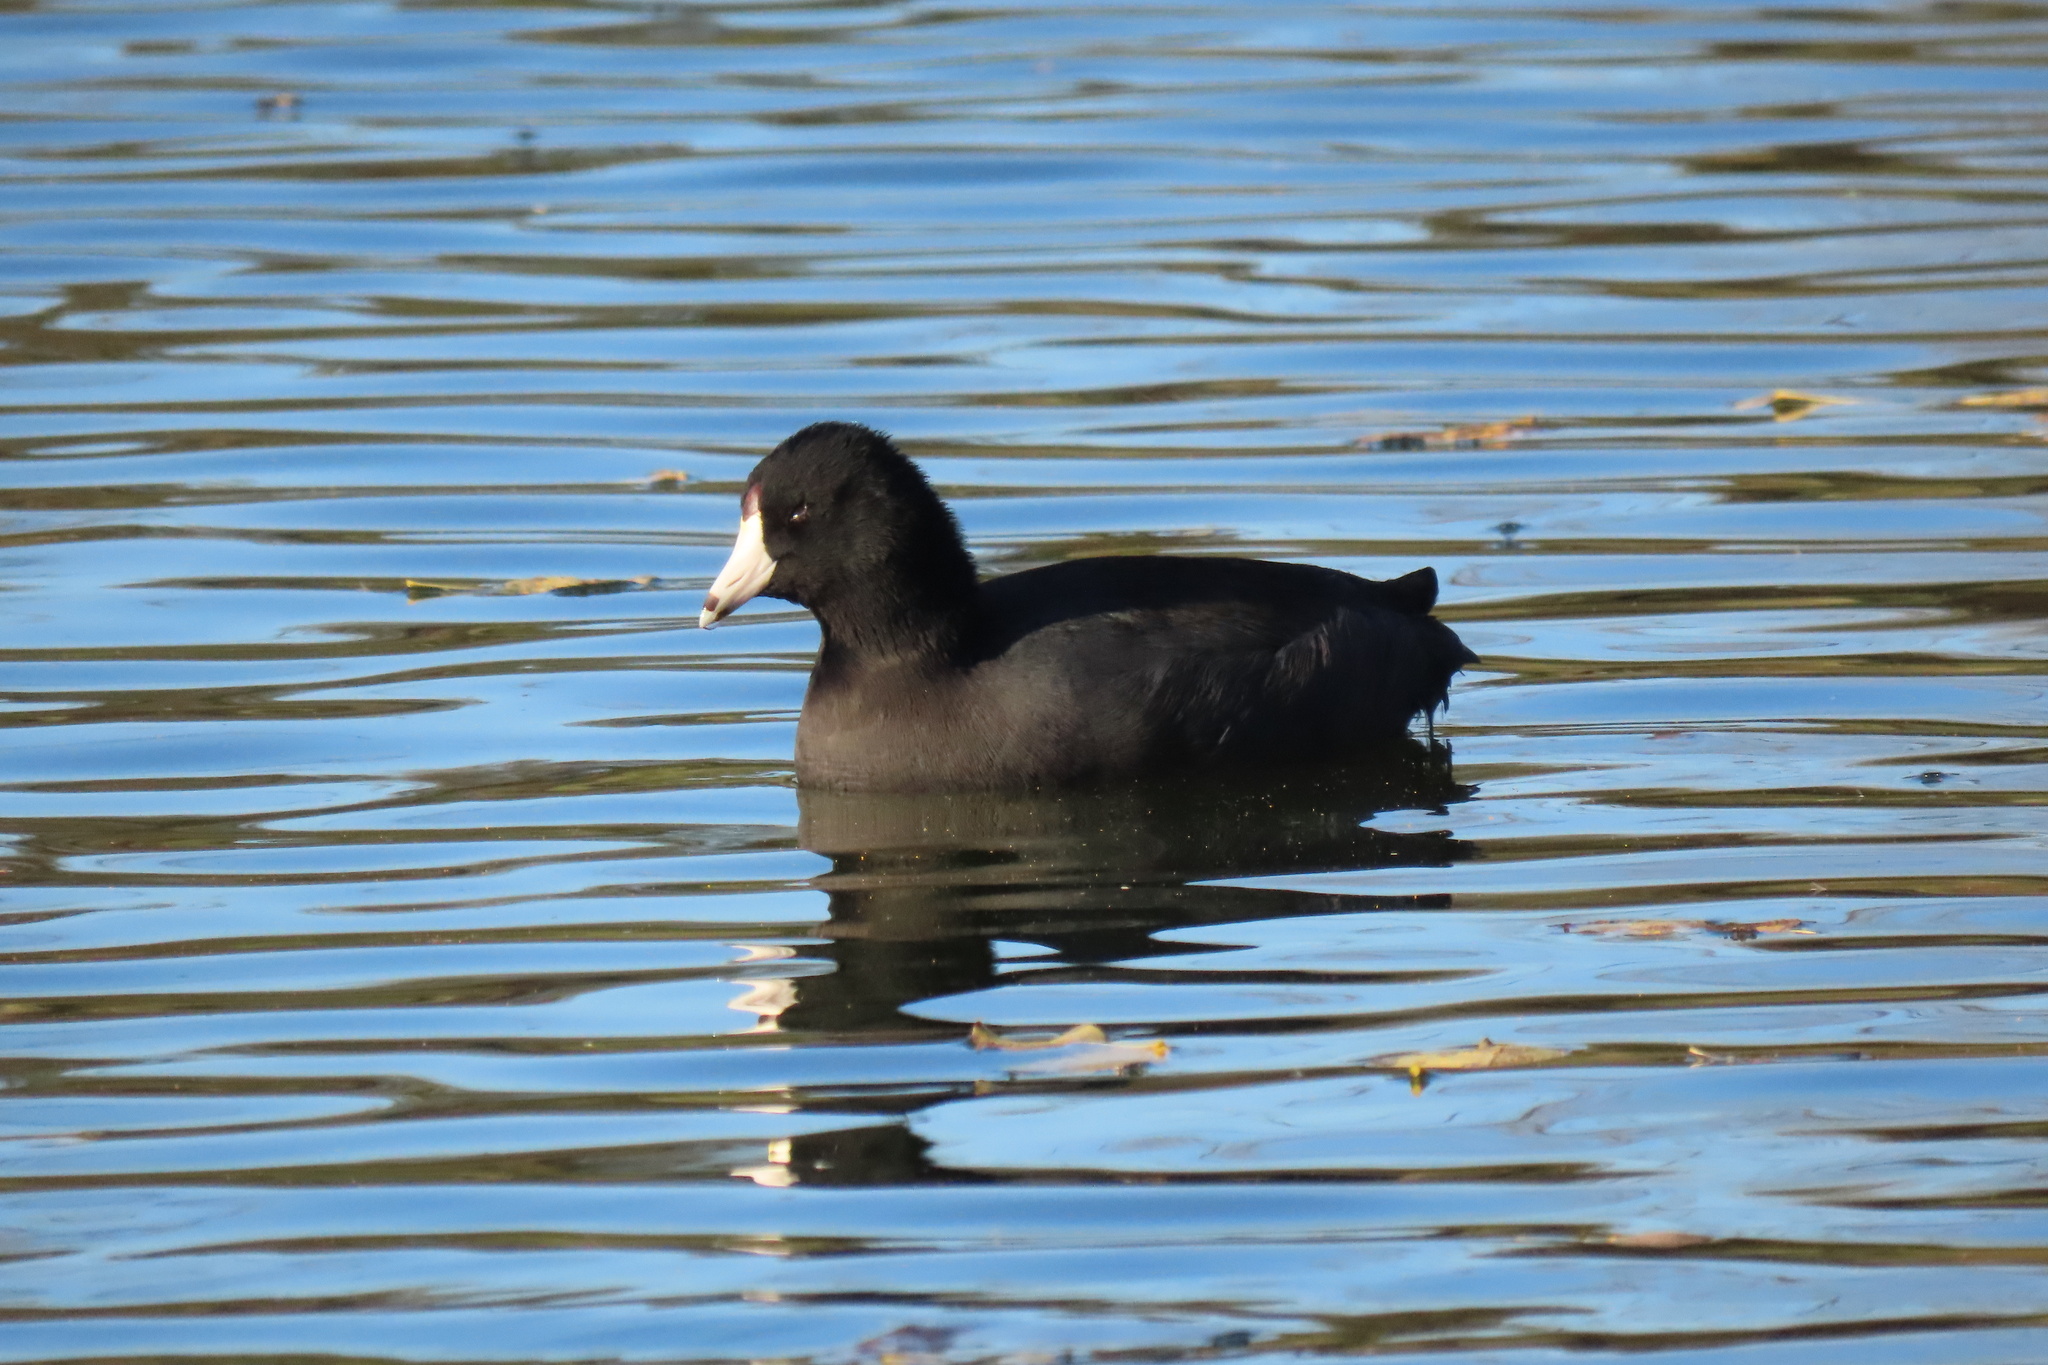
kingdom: Animalia
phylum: Chordata
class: Aves
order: Gruiformes
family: Rallidae
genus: Fulica
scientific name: Fulica americana
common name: American coot
